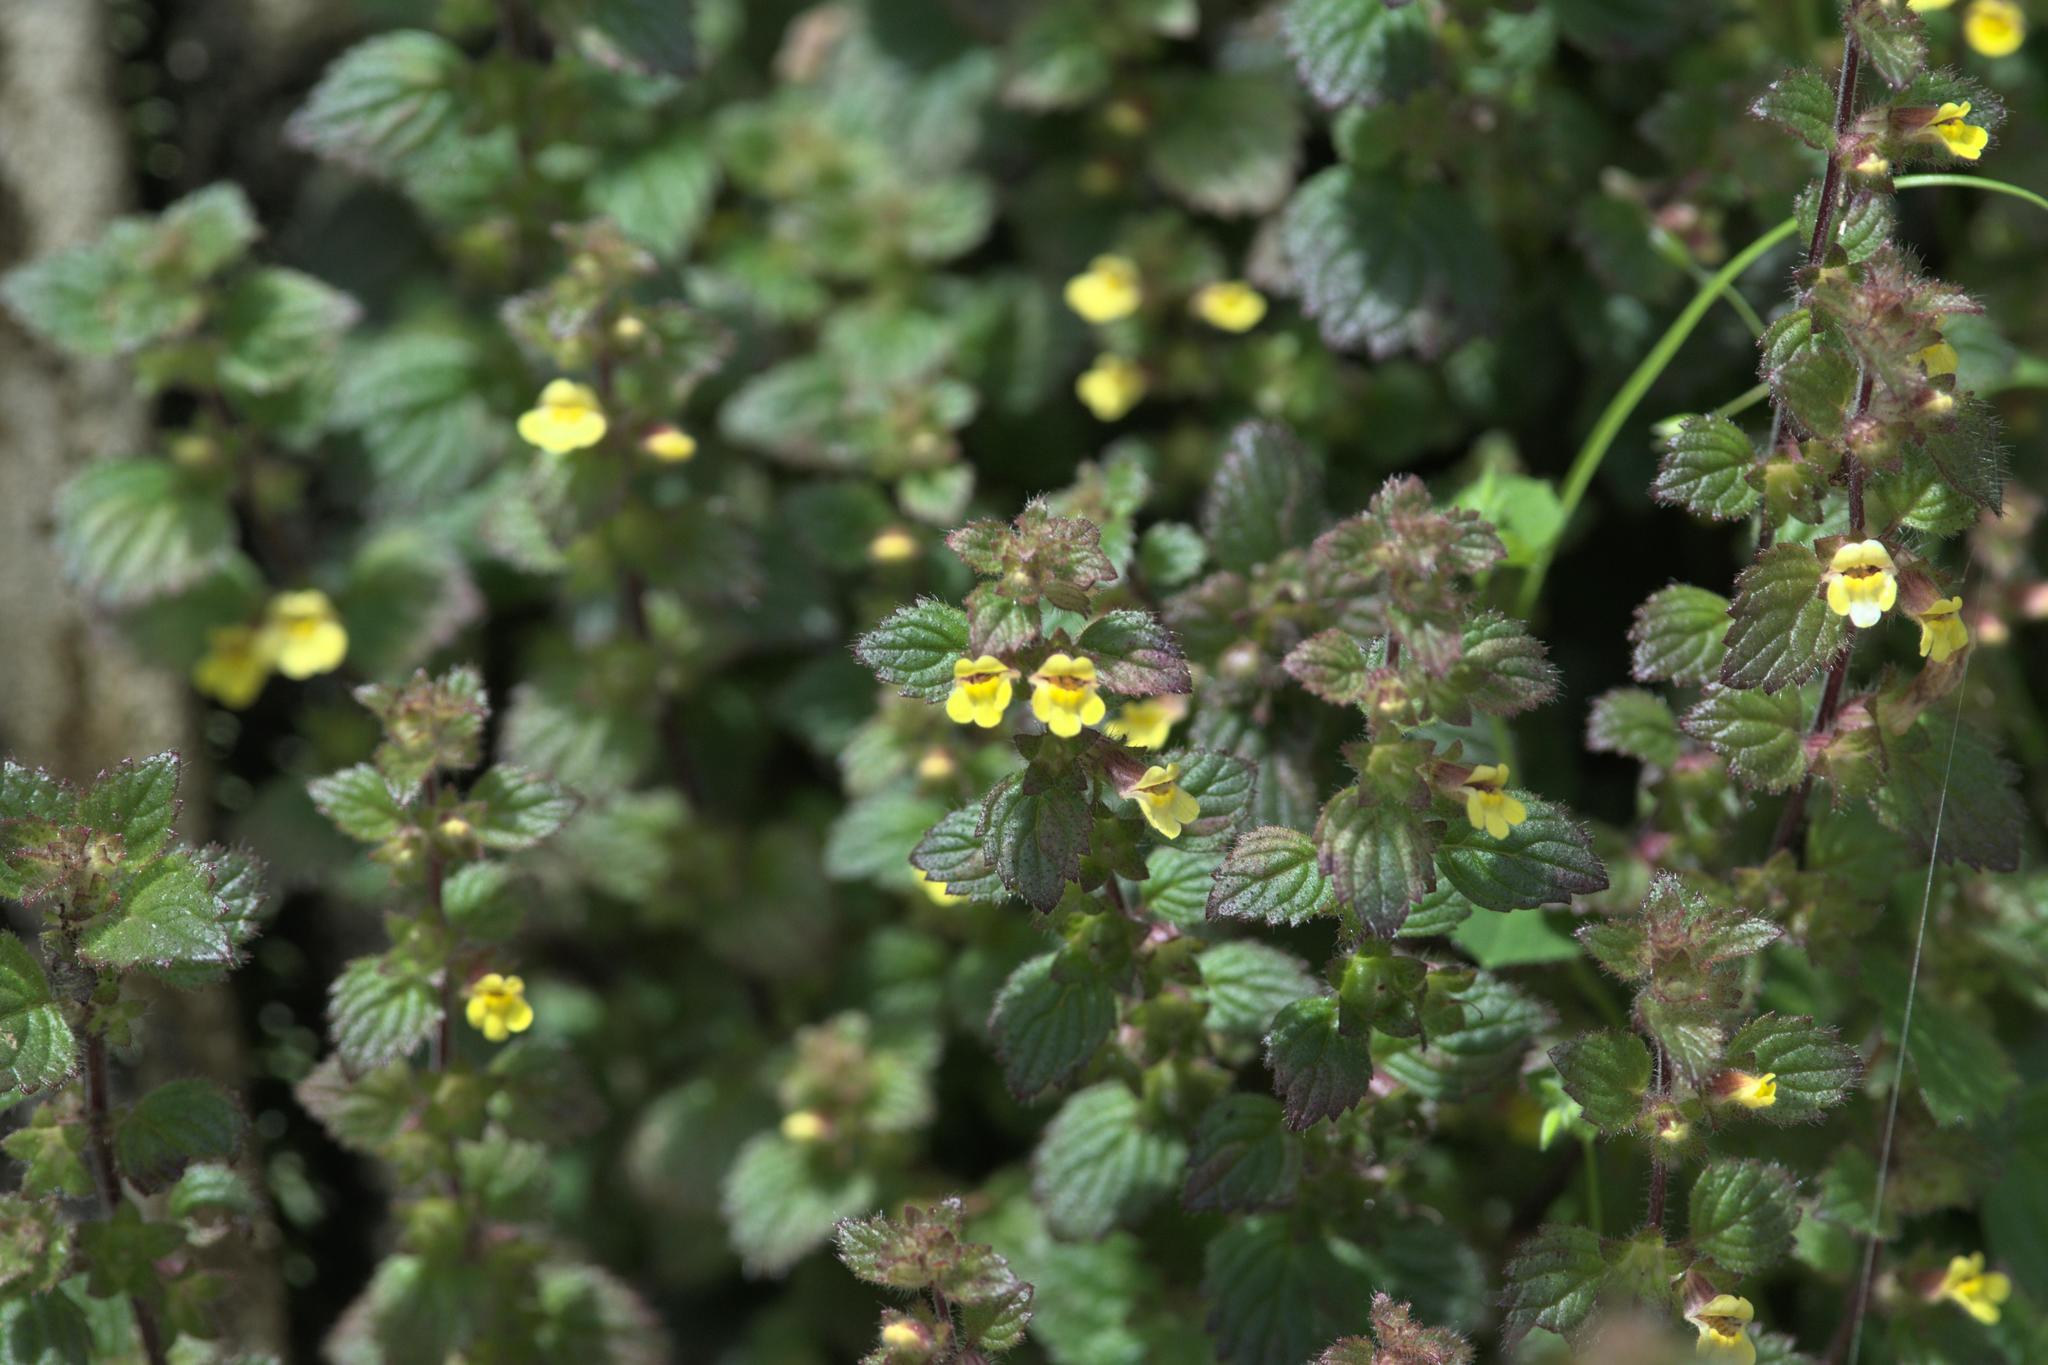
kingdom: Plantae
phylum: Tracheophyta
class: Magnoliopsida
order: Lamiales
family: Orobanchaceae
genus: Lindenbergia
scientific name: Lindenbergia indica
